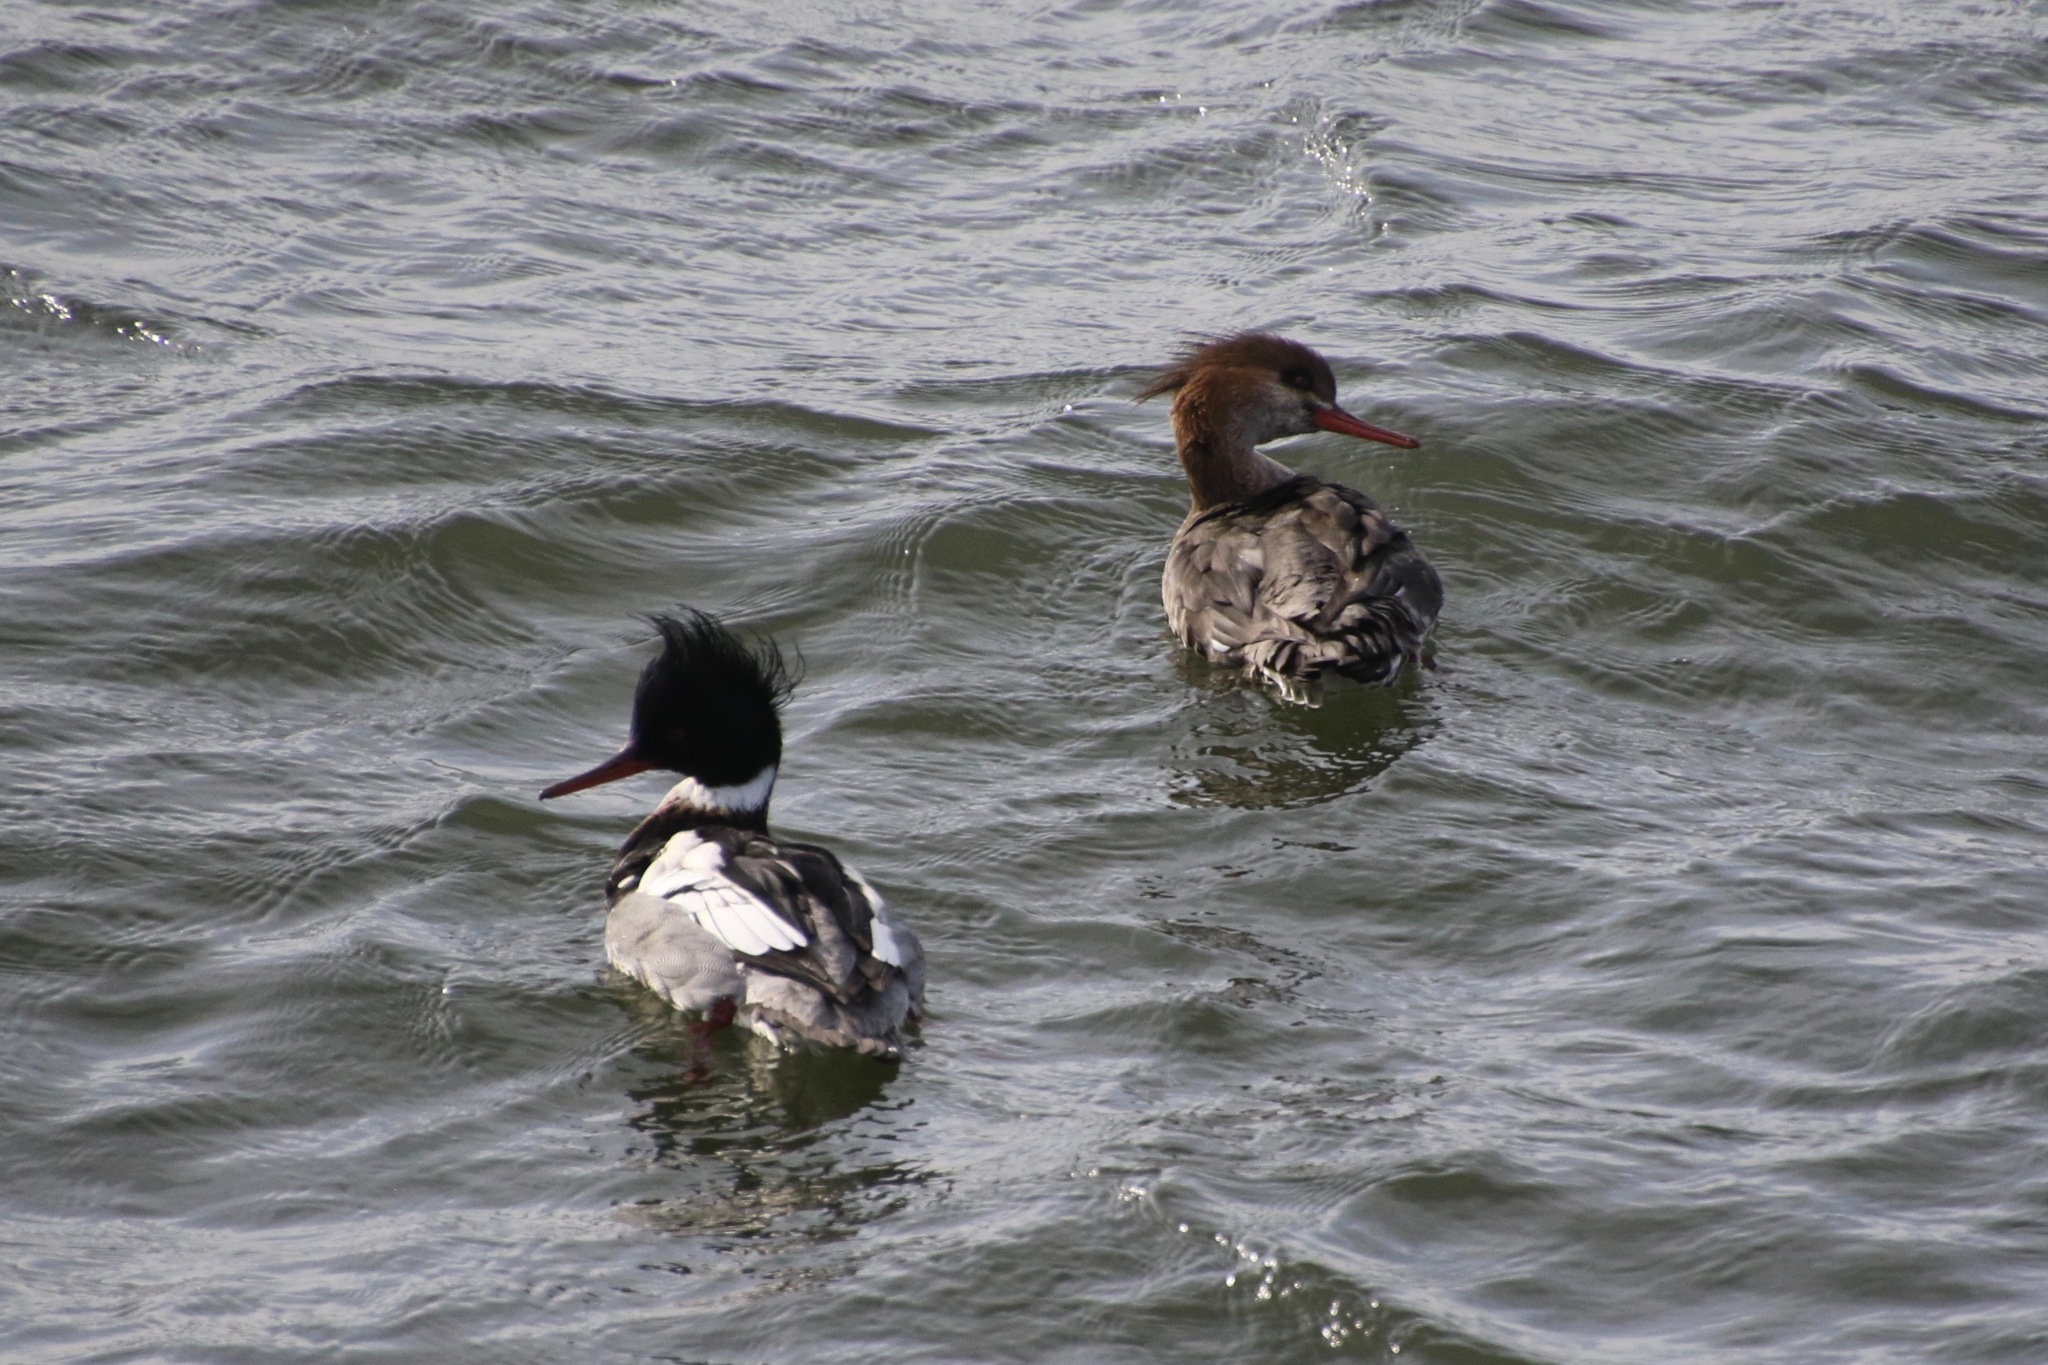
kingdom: Animalia
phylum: Chordata
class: Aves
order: Anseriformes
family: Anatidae
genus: Mergus
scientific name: Mergus serrator
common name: Red-breasted merganser
